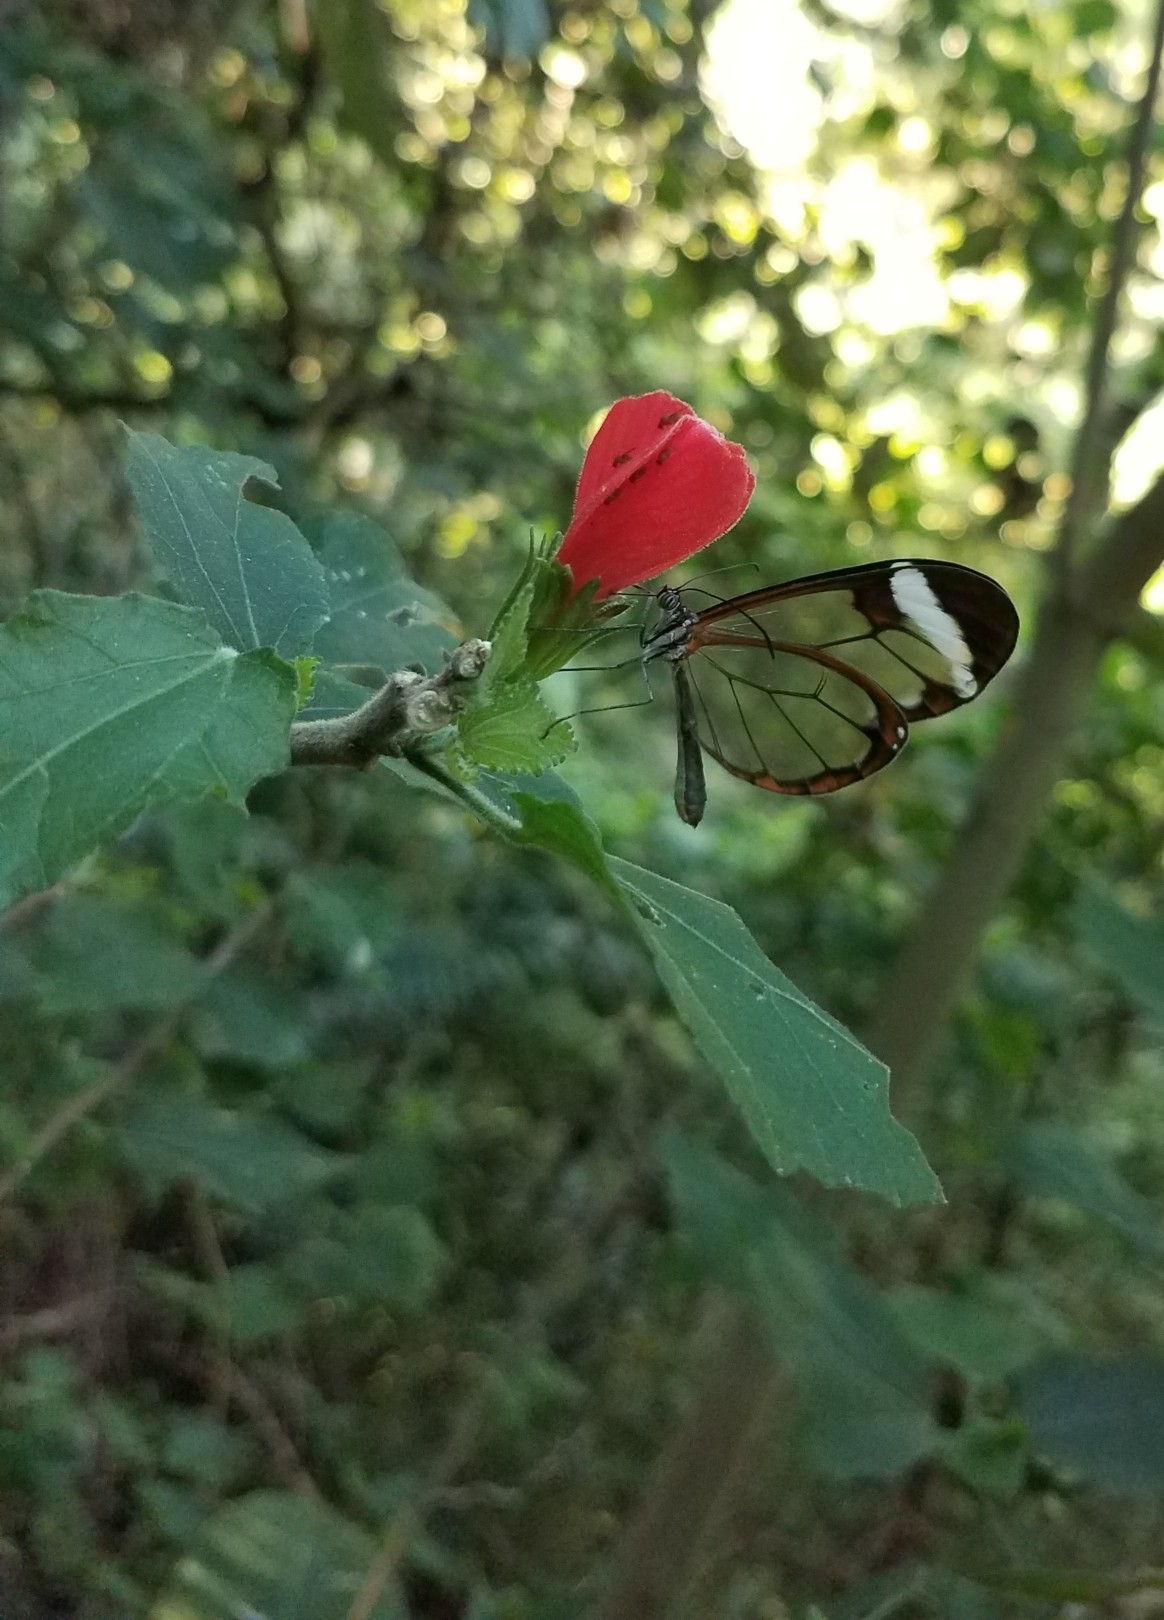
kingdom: Animalia
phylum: Arthropoda
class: Insecta
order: Lepidoptera
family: Nymphalidae
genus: Greta
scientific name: Greta morgane
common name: Thick-tipped greta
